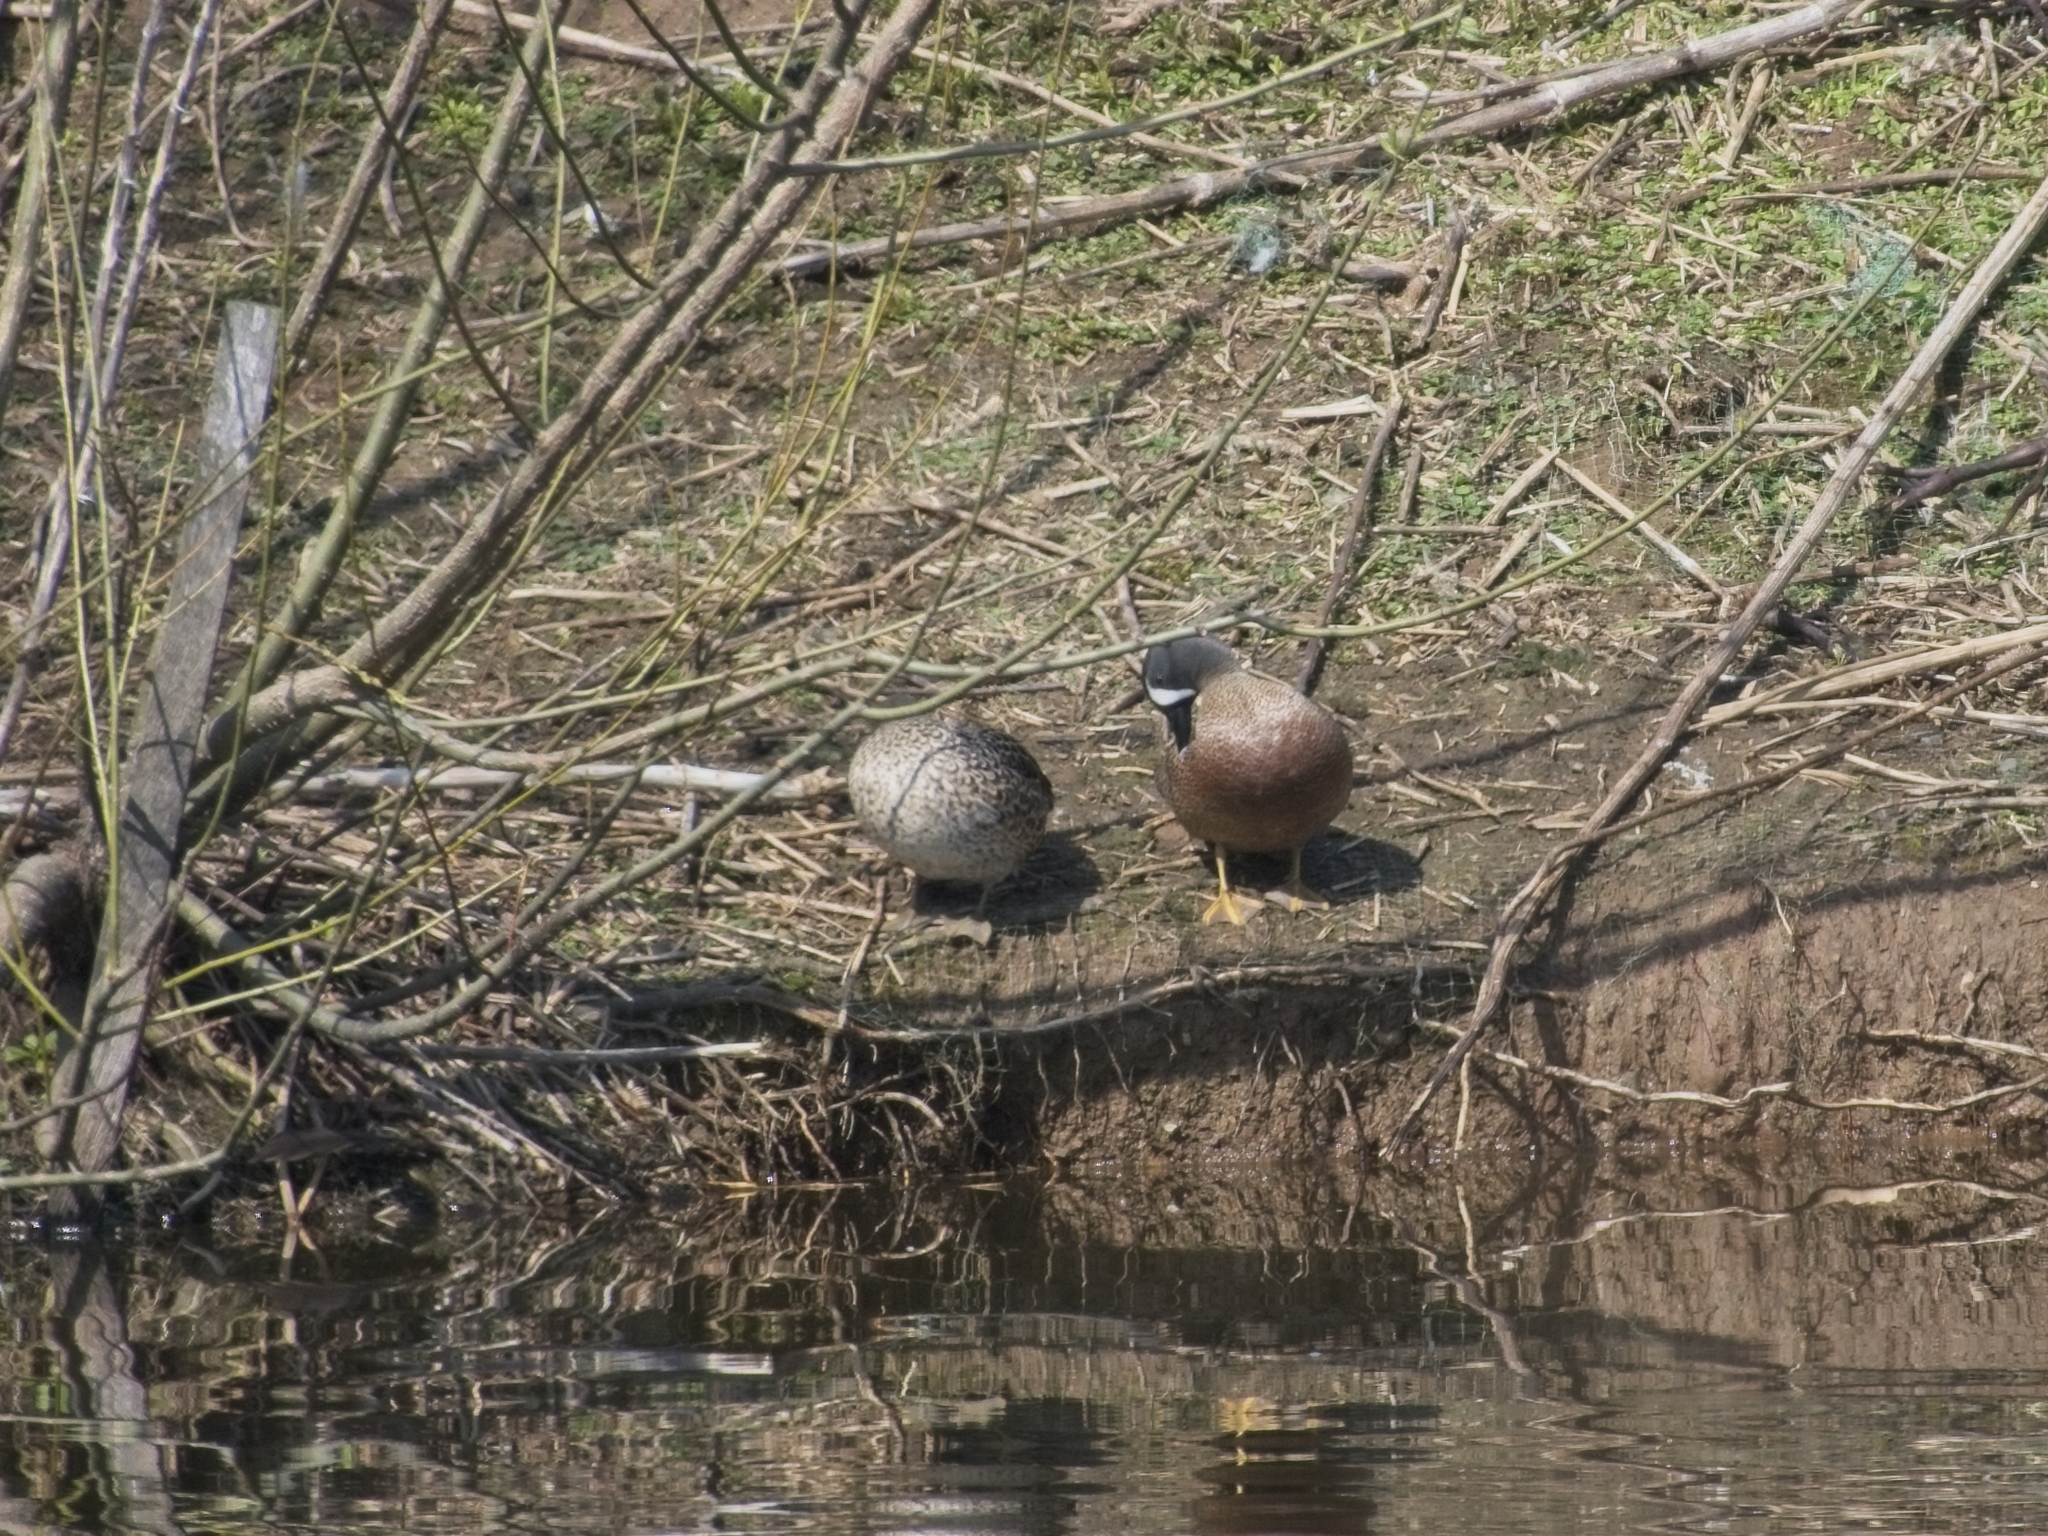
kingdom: Animalia
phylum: Chordata
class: Aves
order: Anseriformes
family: Anatidae
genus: Spatula
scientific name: Spatula discors
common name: Blue-winged teal
